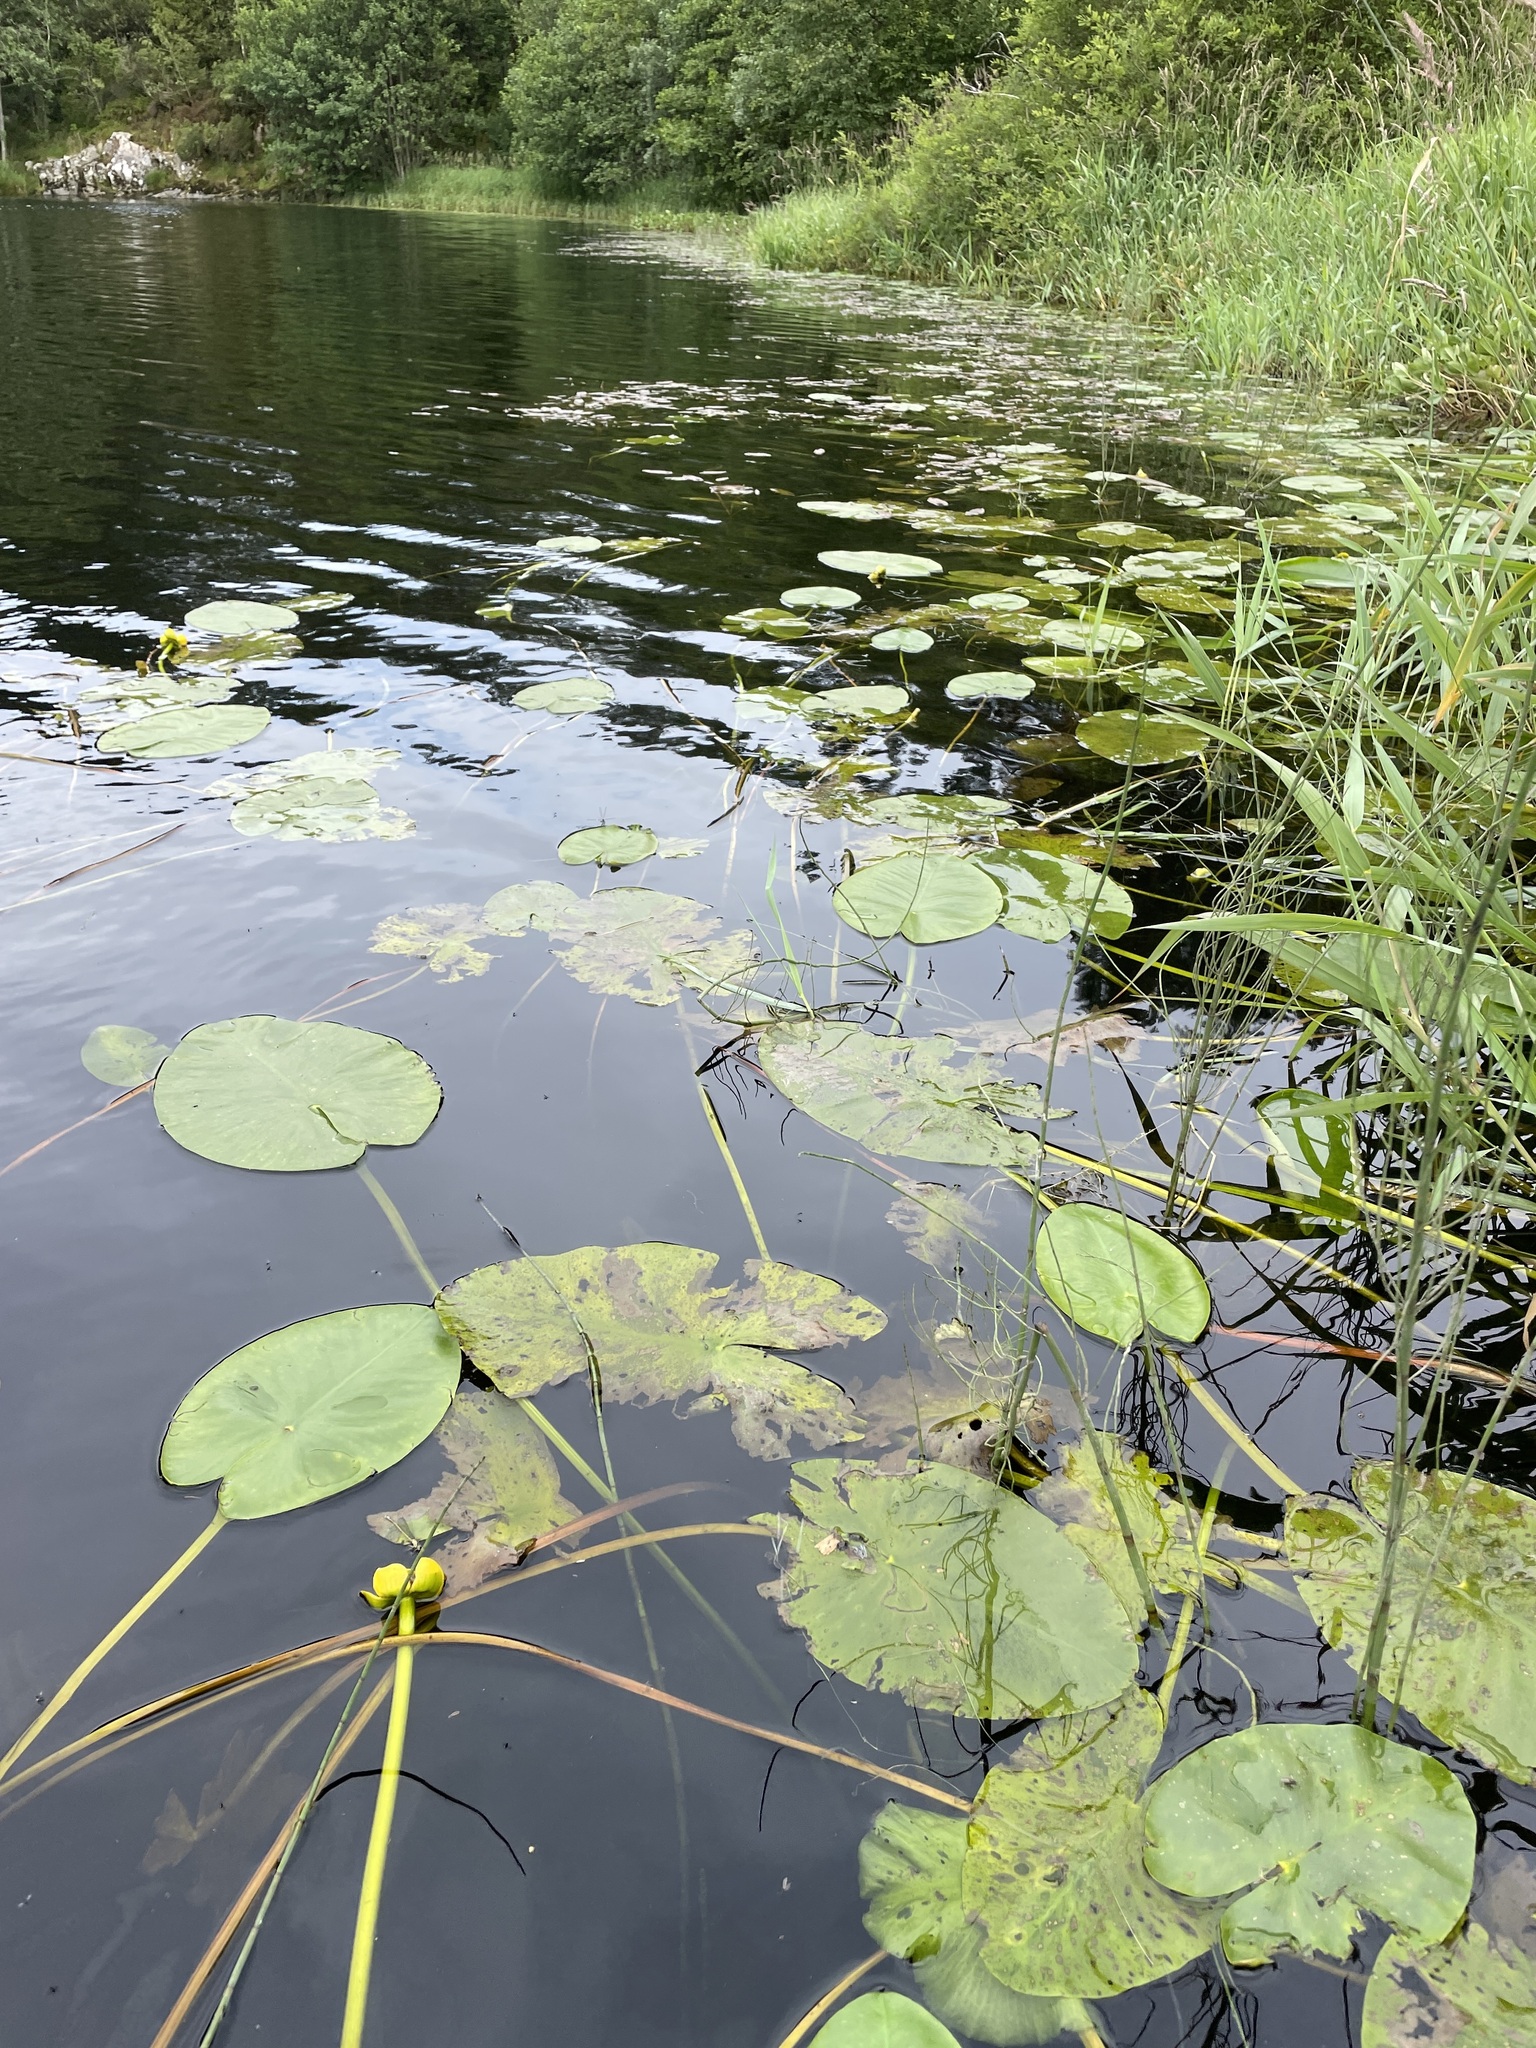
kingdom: Plantae
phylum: Tracheophyta
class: Magnoliopsida
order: Nymphaeales
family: Nymphaeaceae
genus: Nuphar
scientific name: Nuphar lutea
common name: Yellow water-lily
